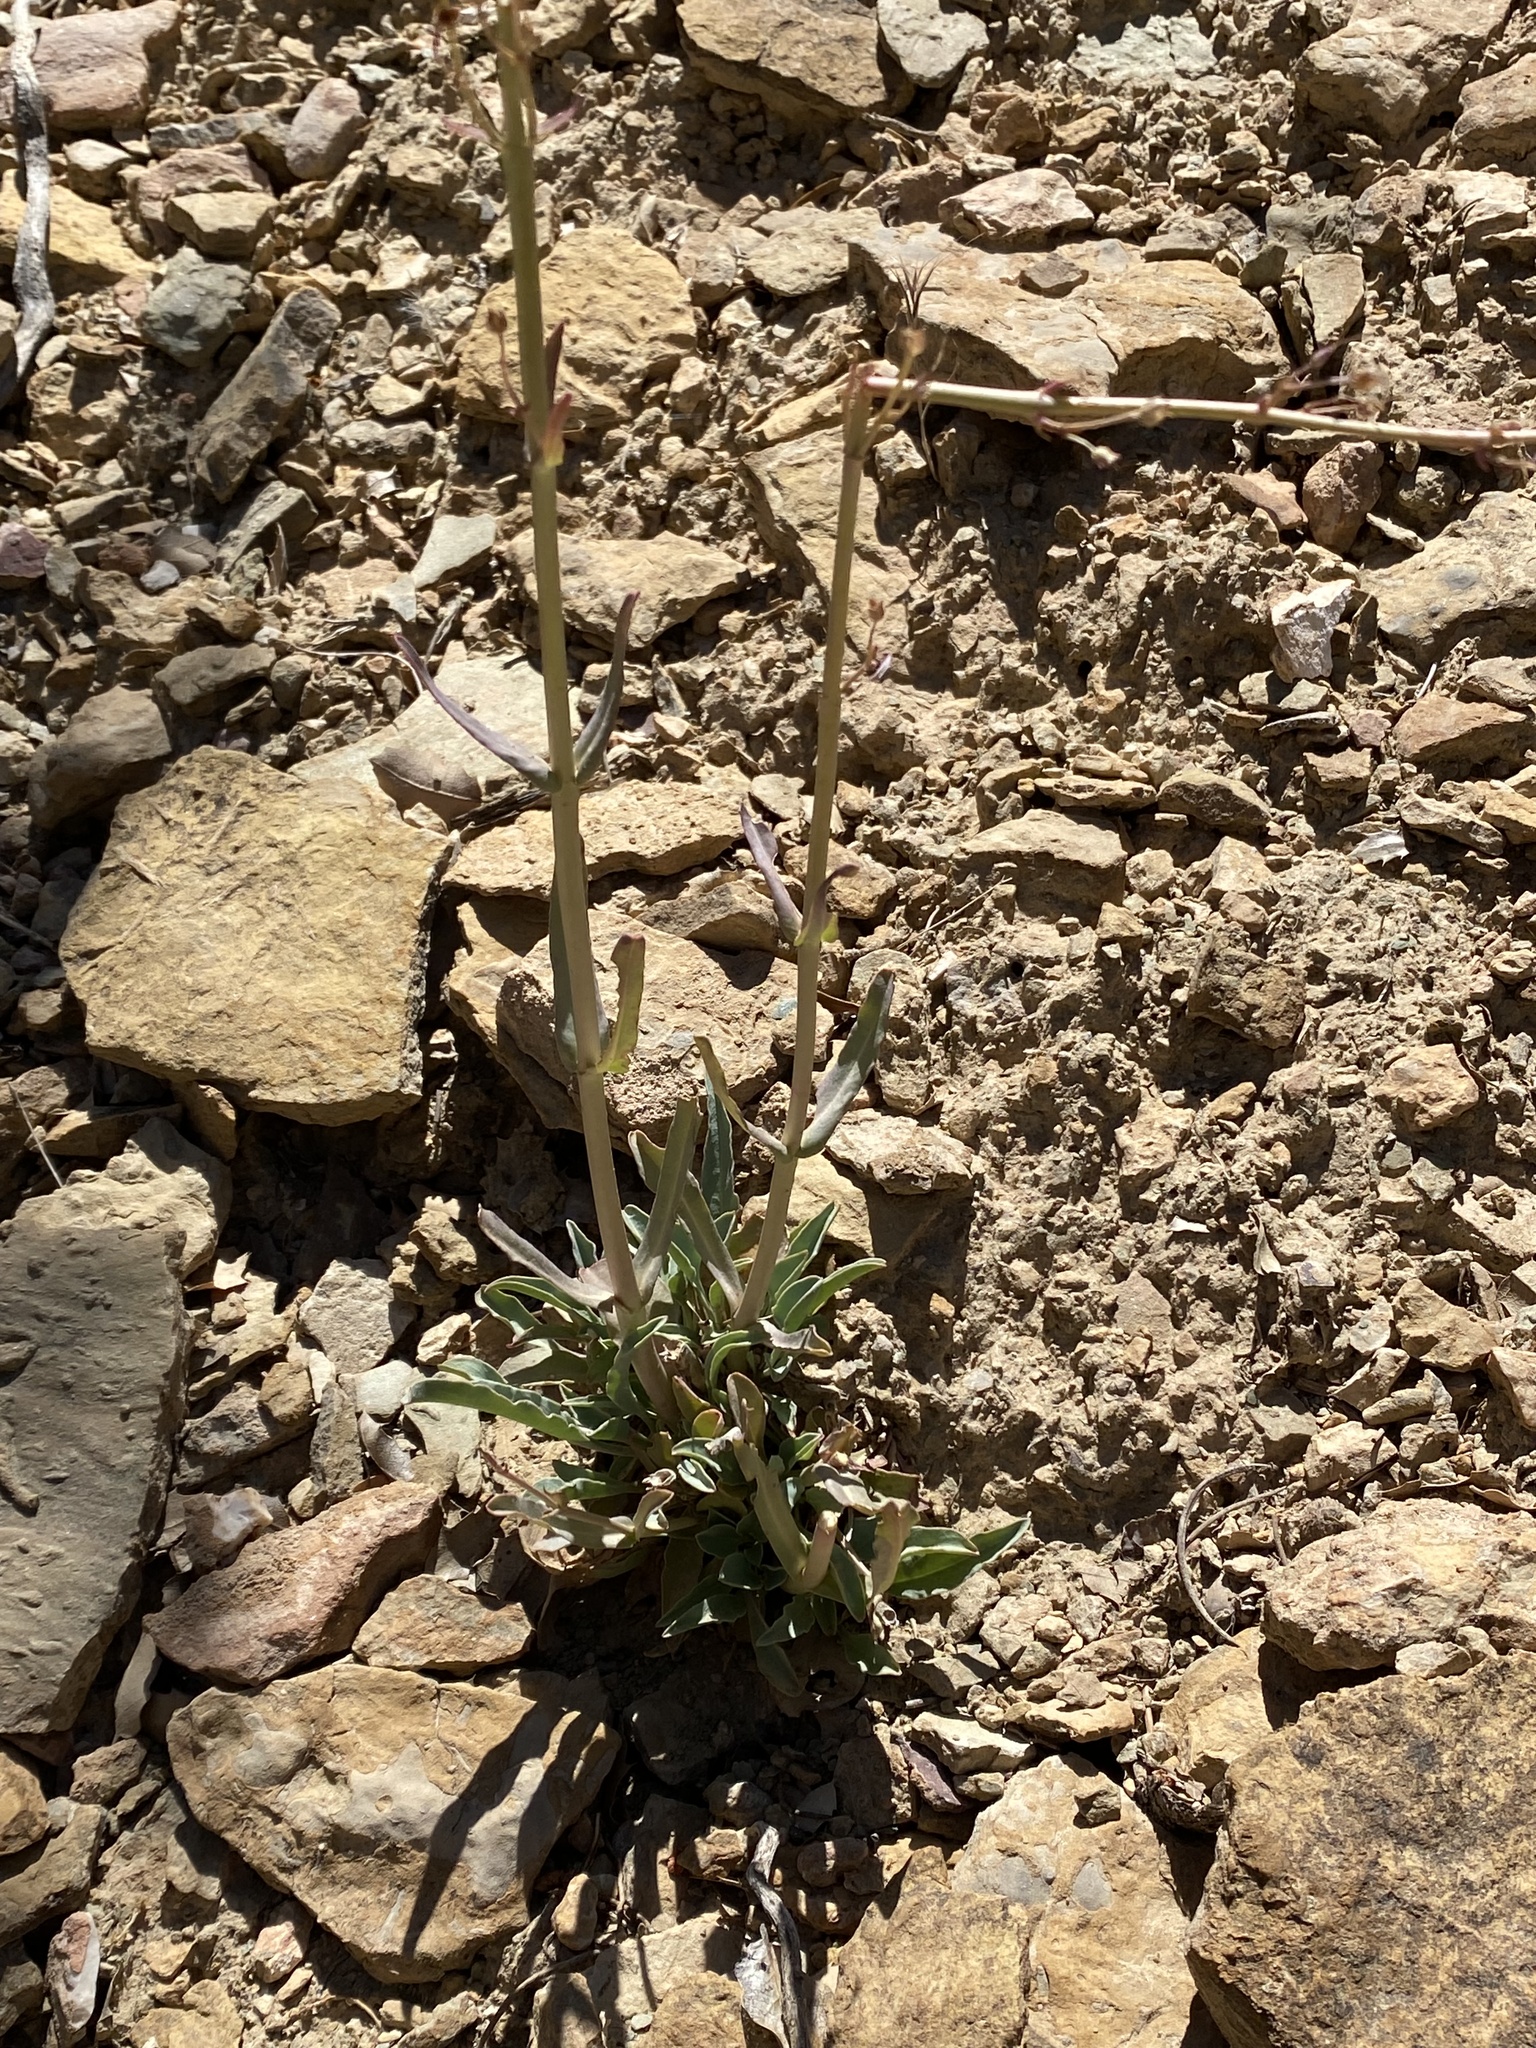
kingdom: Plantae
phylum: Tracheophyta
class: Magnoliopsida
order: Lamiales
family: Plantaginaceae
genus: Penstemon
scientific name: Penstemon pachyphyllus
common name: Thick-leaf penstemon
